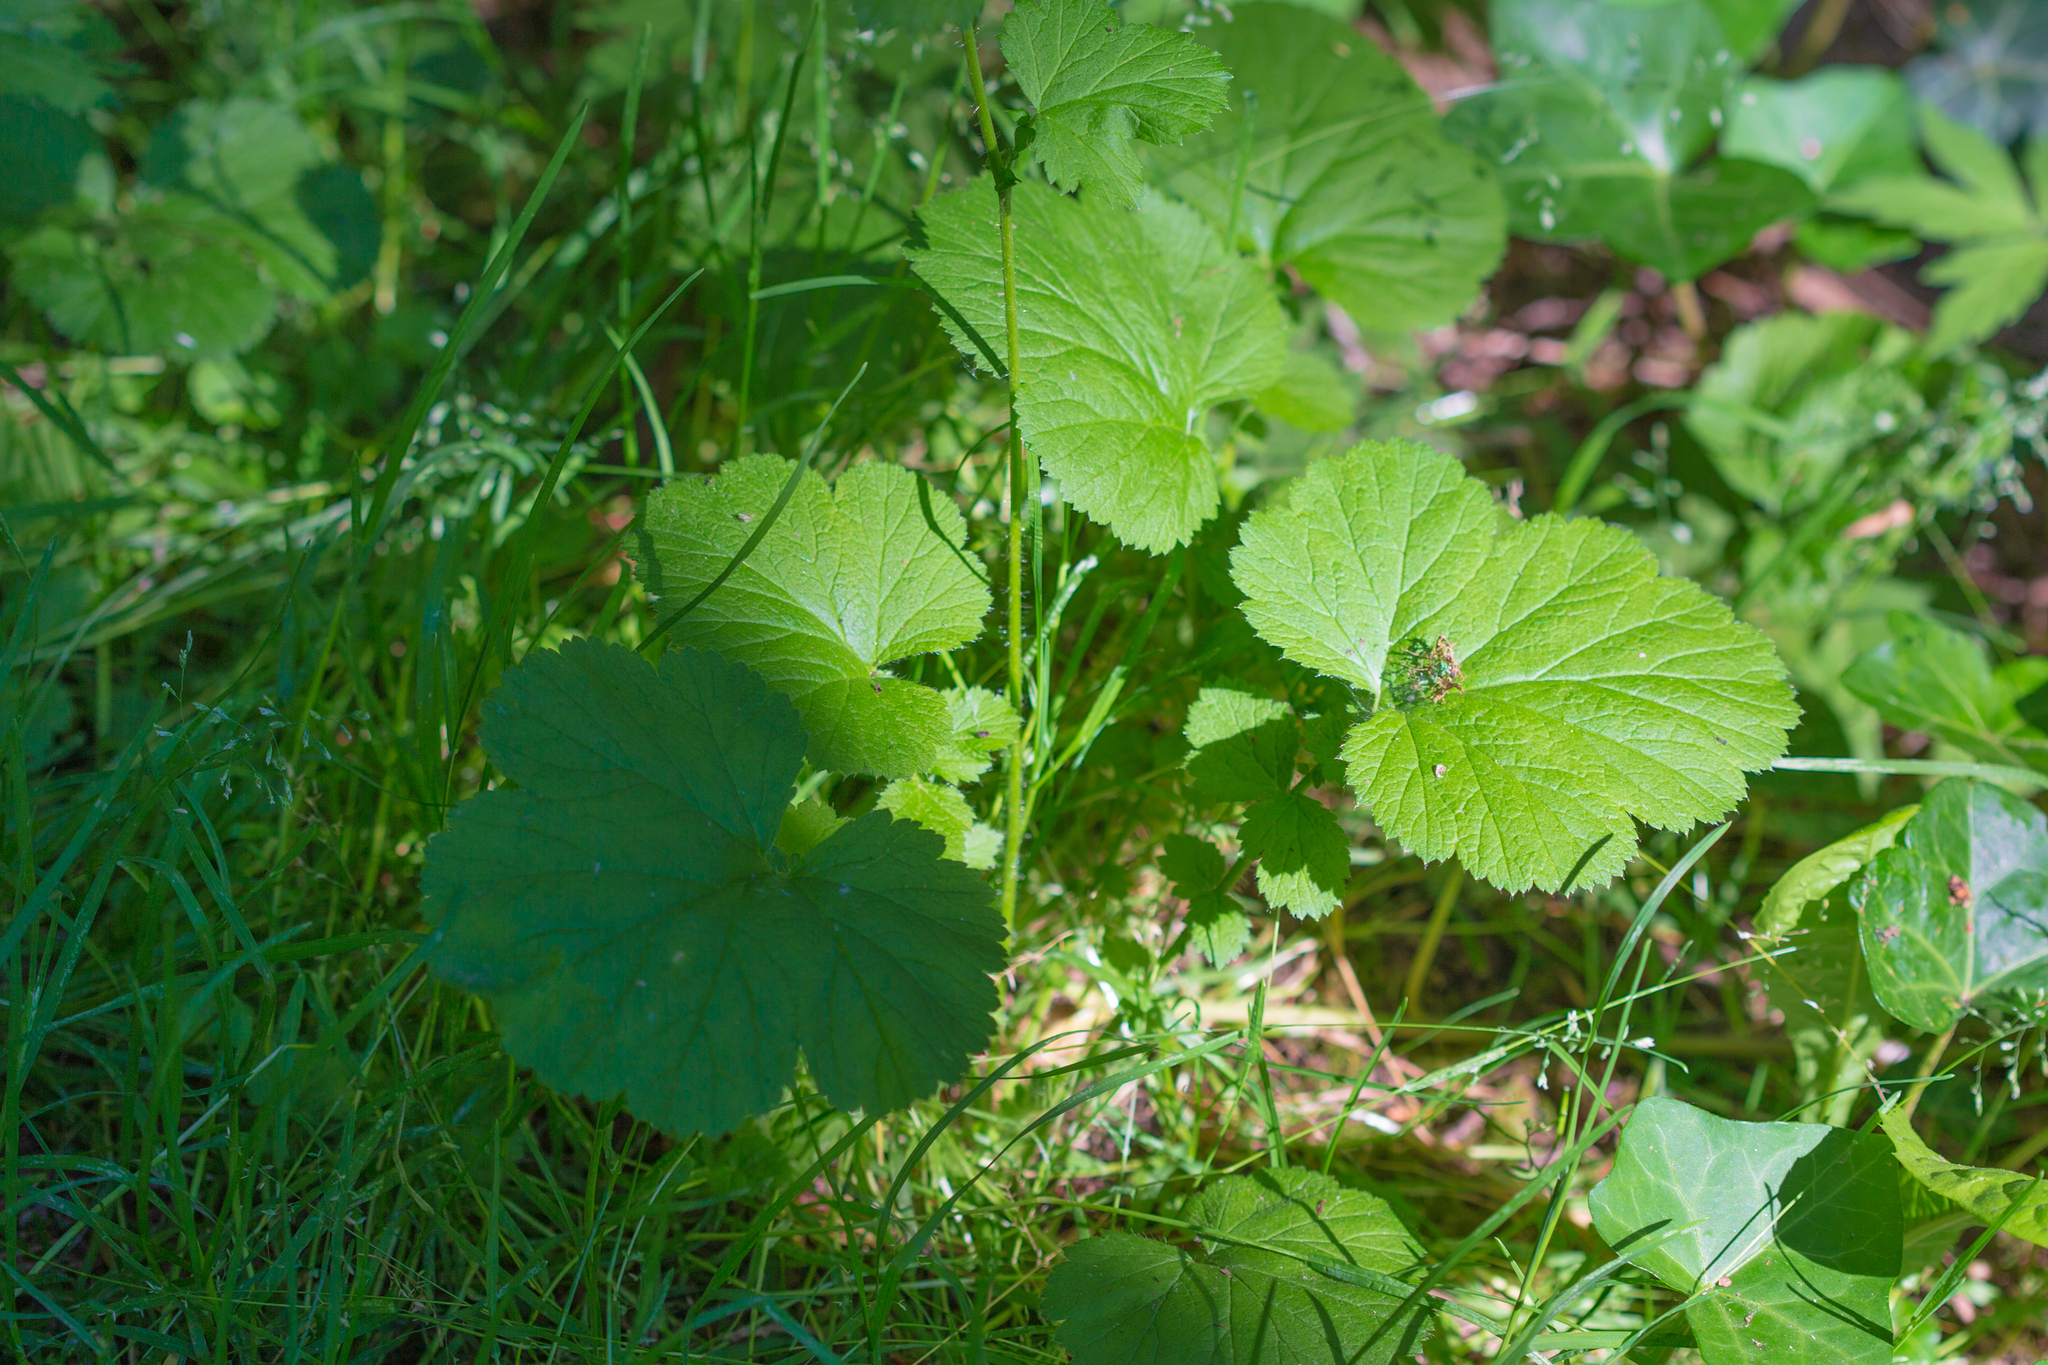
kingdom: Plantae
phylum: Tracheophyta
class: Magnoliopsida
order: Rosales
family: Rosaceae
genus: Geum
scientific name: Geum macrophyllum
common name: Large-leaved avens
